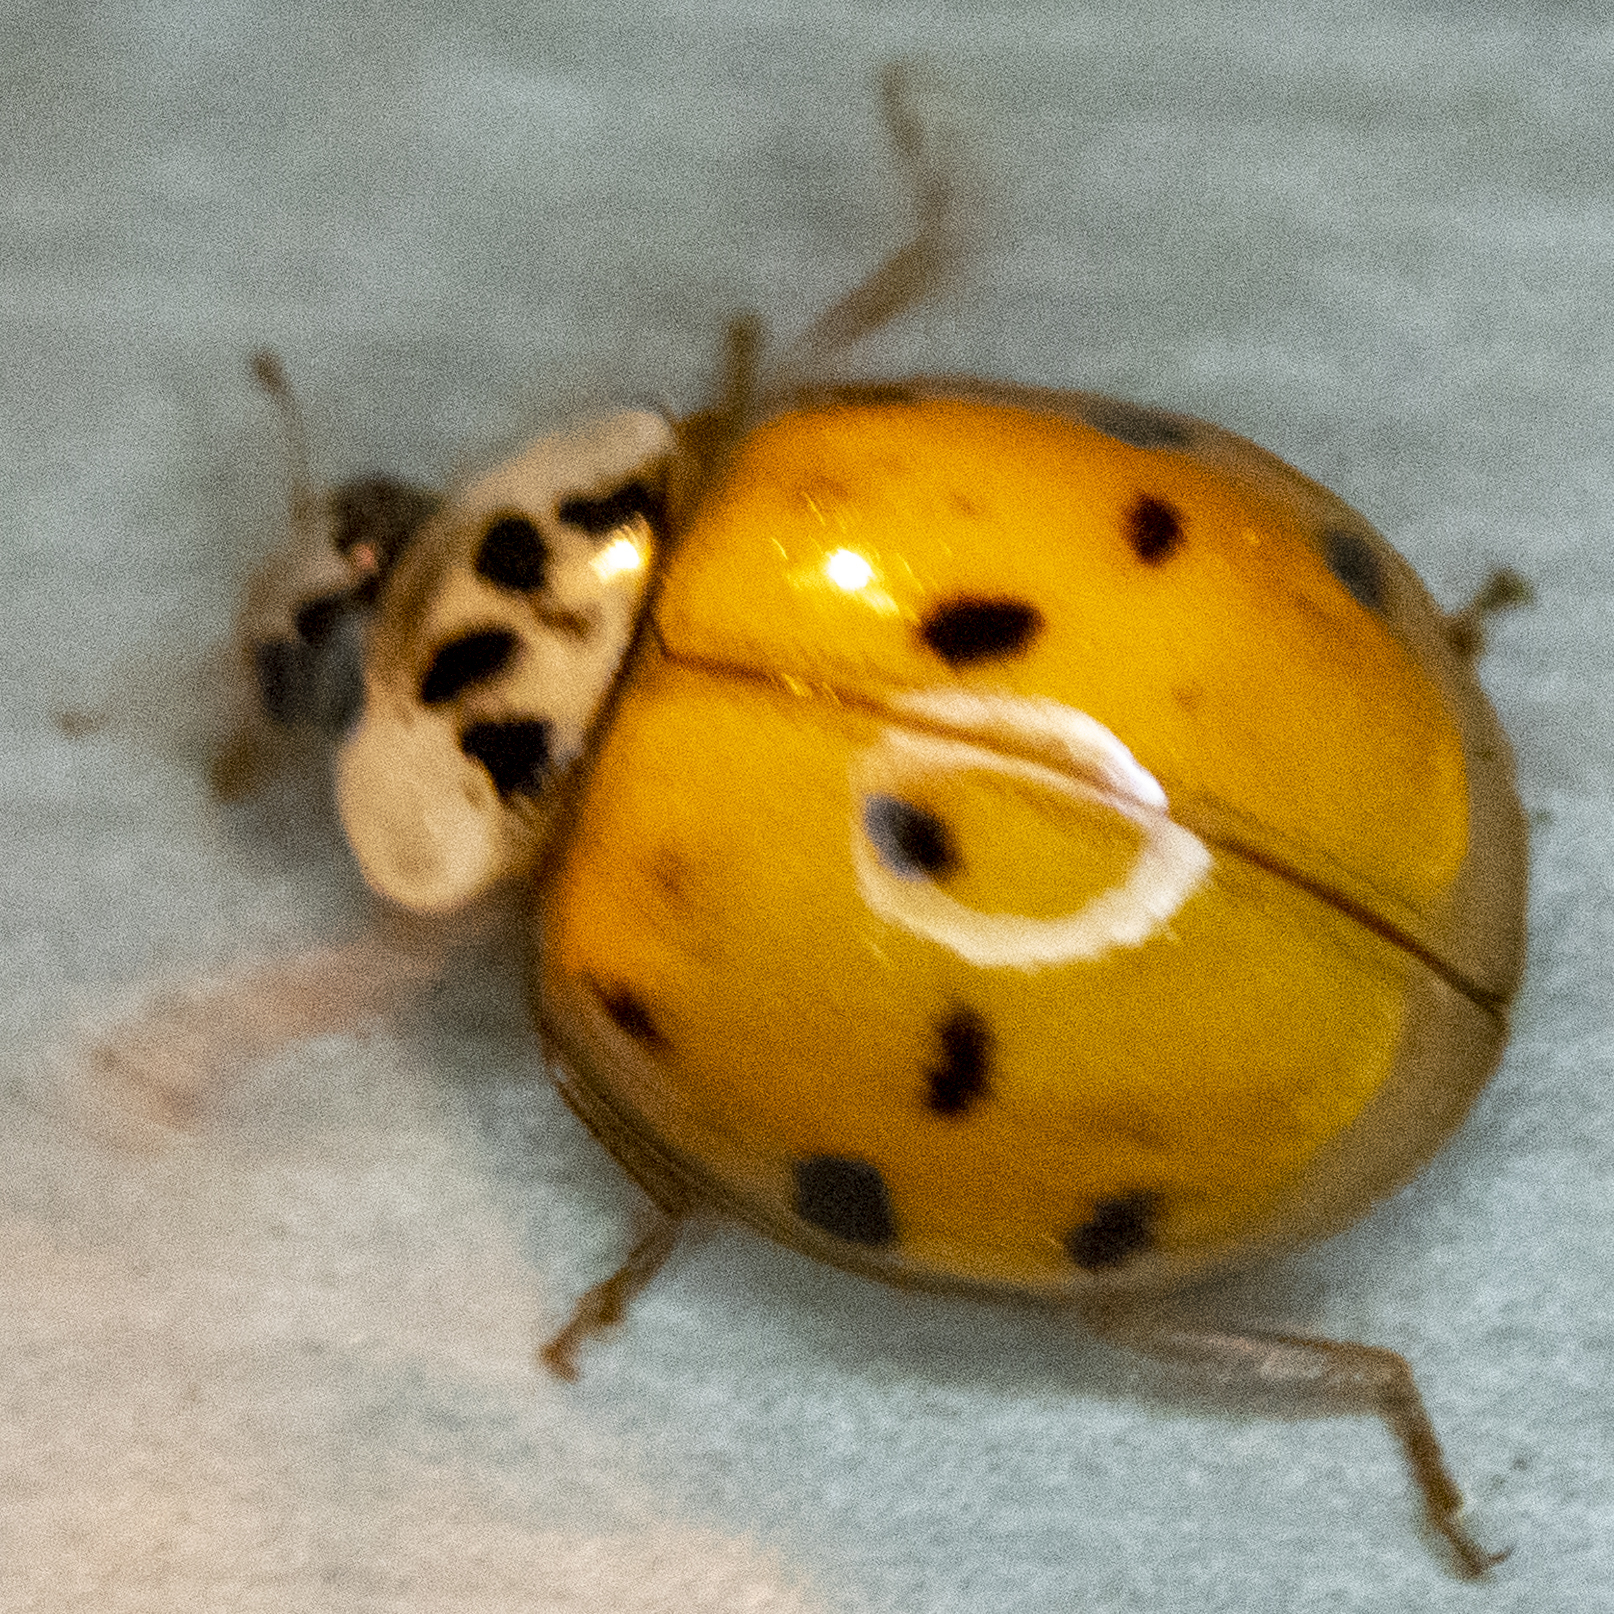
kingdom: Animalia
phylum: Arthropoda
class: Insecta
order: Coleoptera
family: Coccinellidae
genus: Harmonia
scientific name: Harmonia axyridis
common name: Harlequin ladybird
